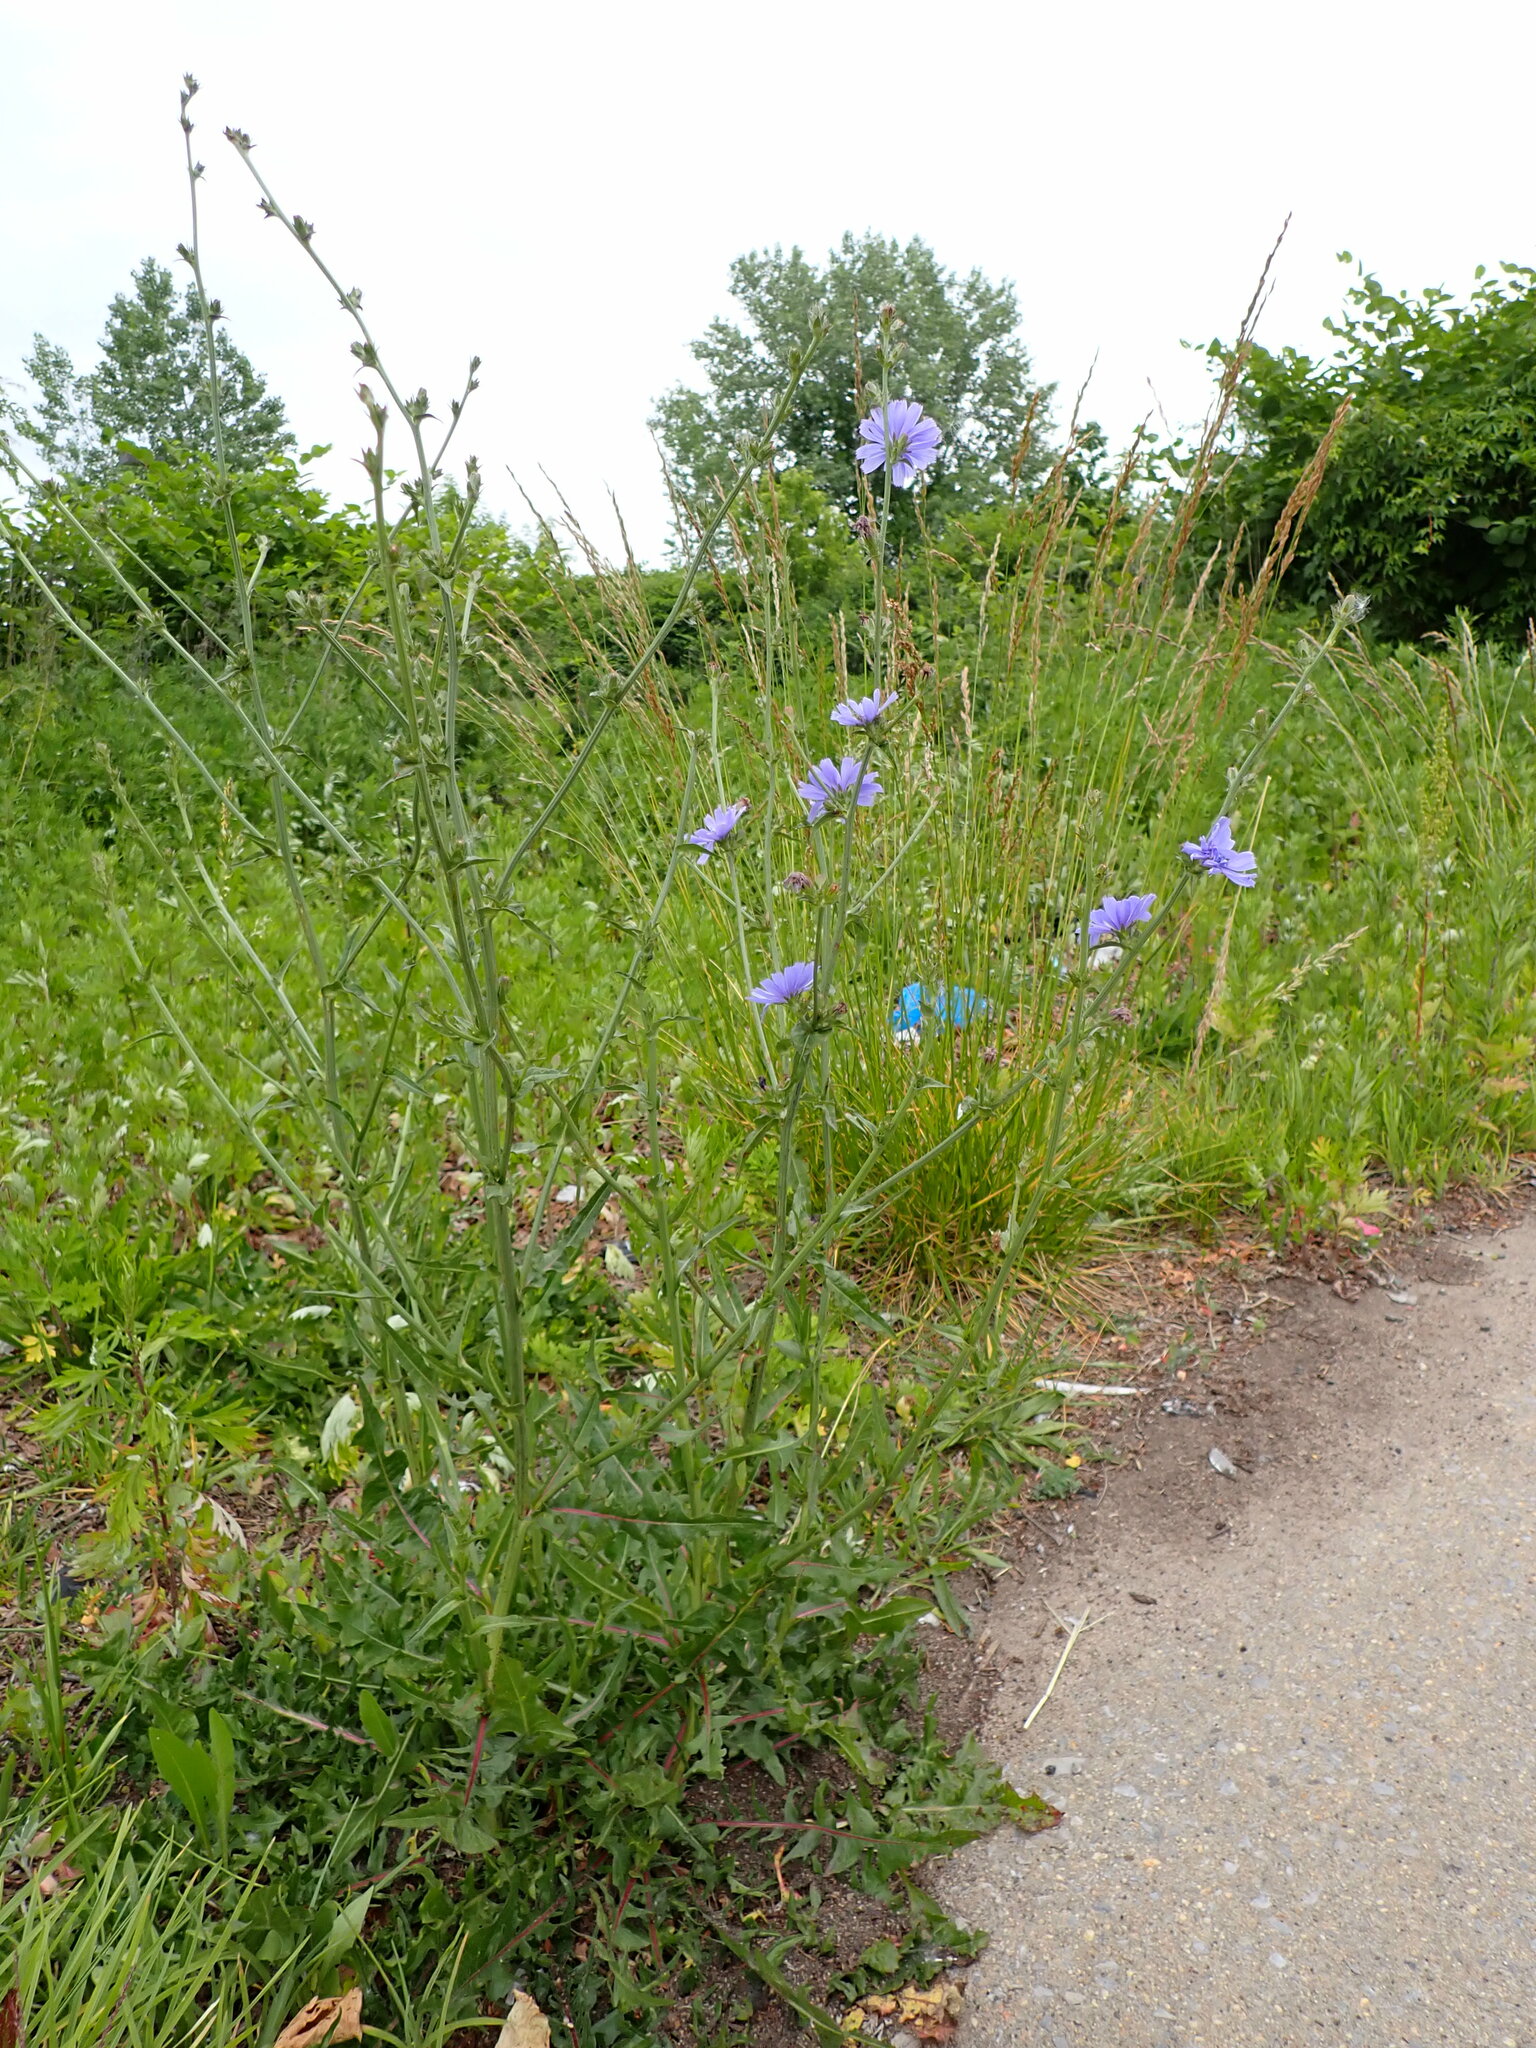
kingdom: Plantae
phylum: Tracheophyta
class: Magnoliopsida
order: Asterales
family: Asteraceae
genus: Cichorium
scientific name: Cichorium intybus
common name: Chicory
